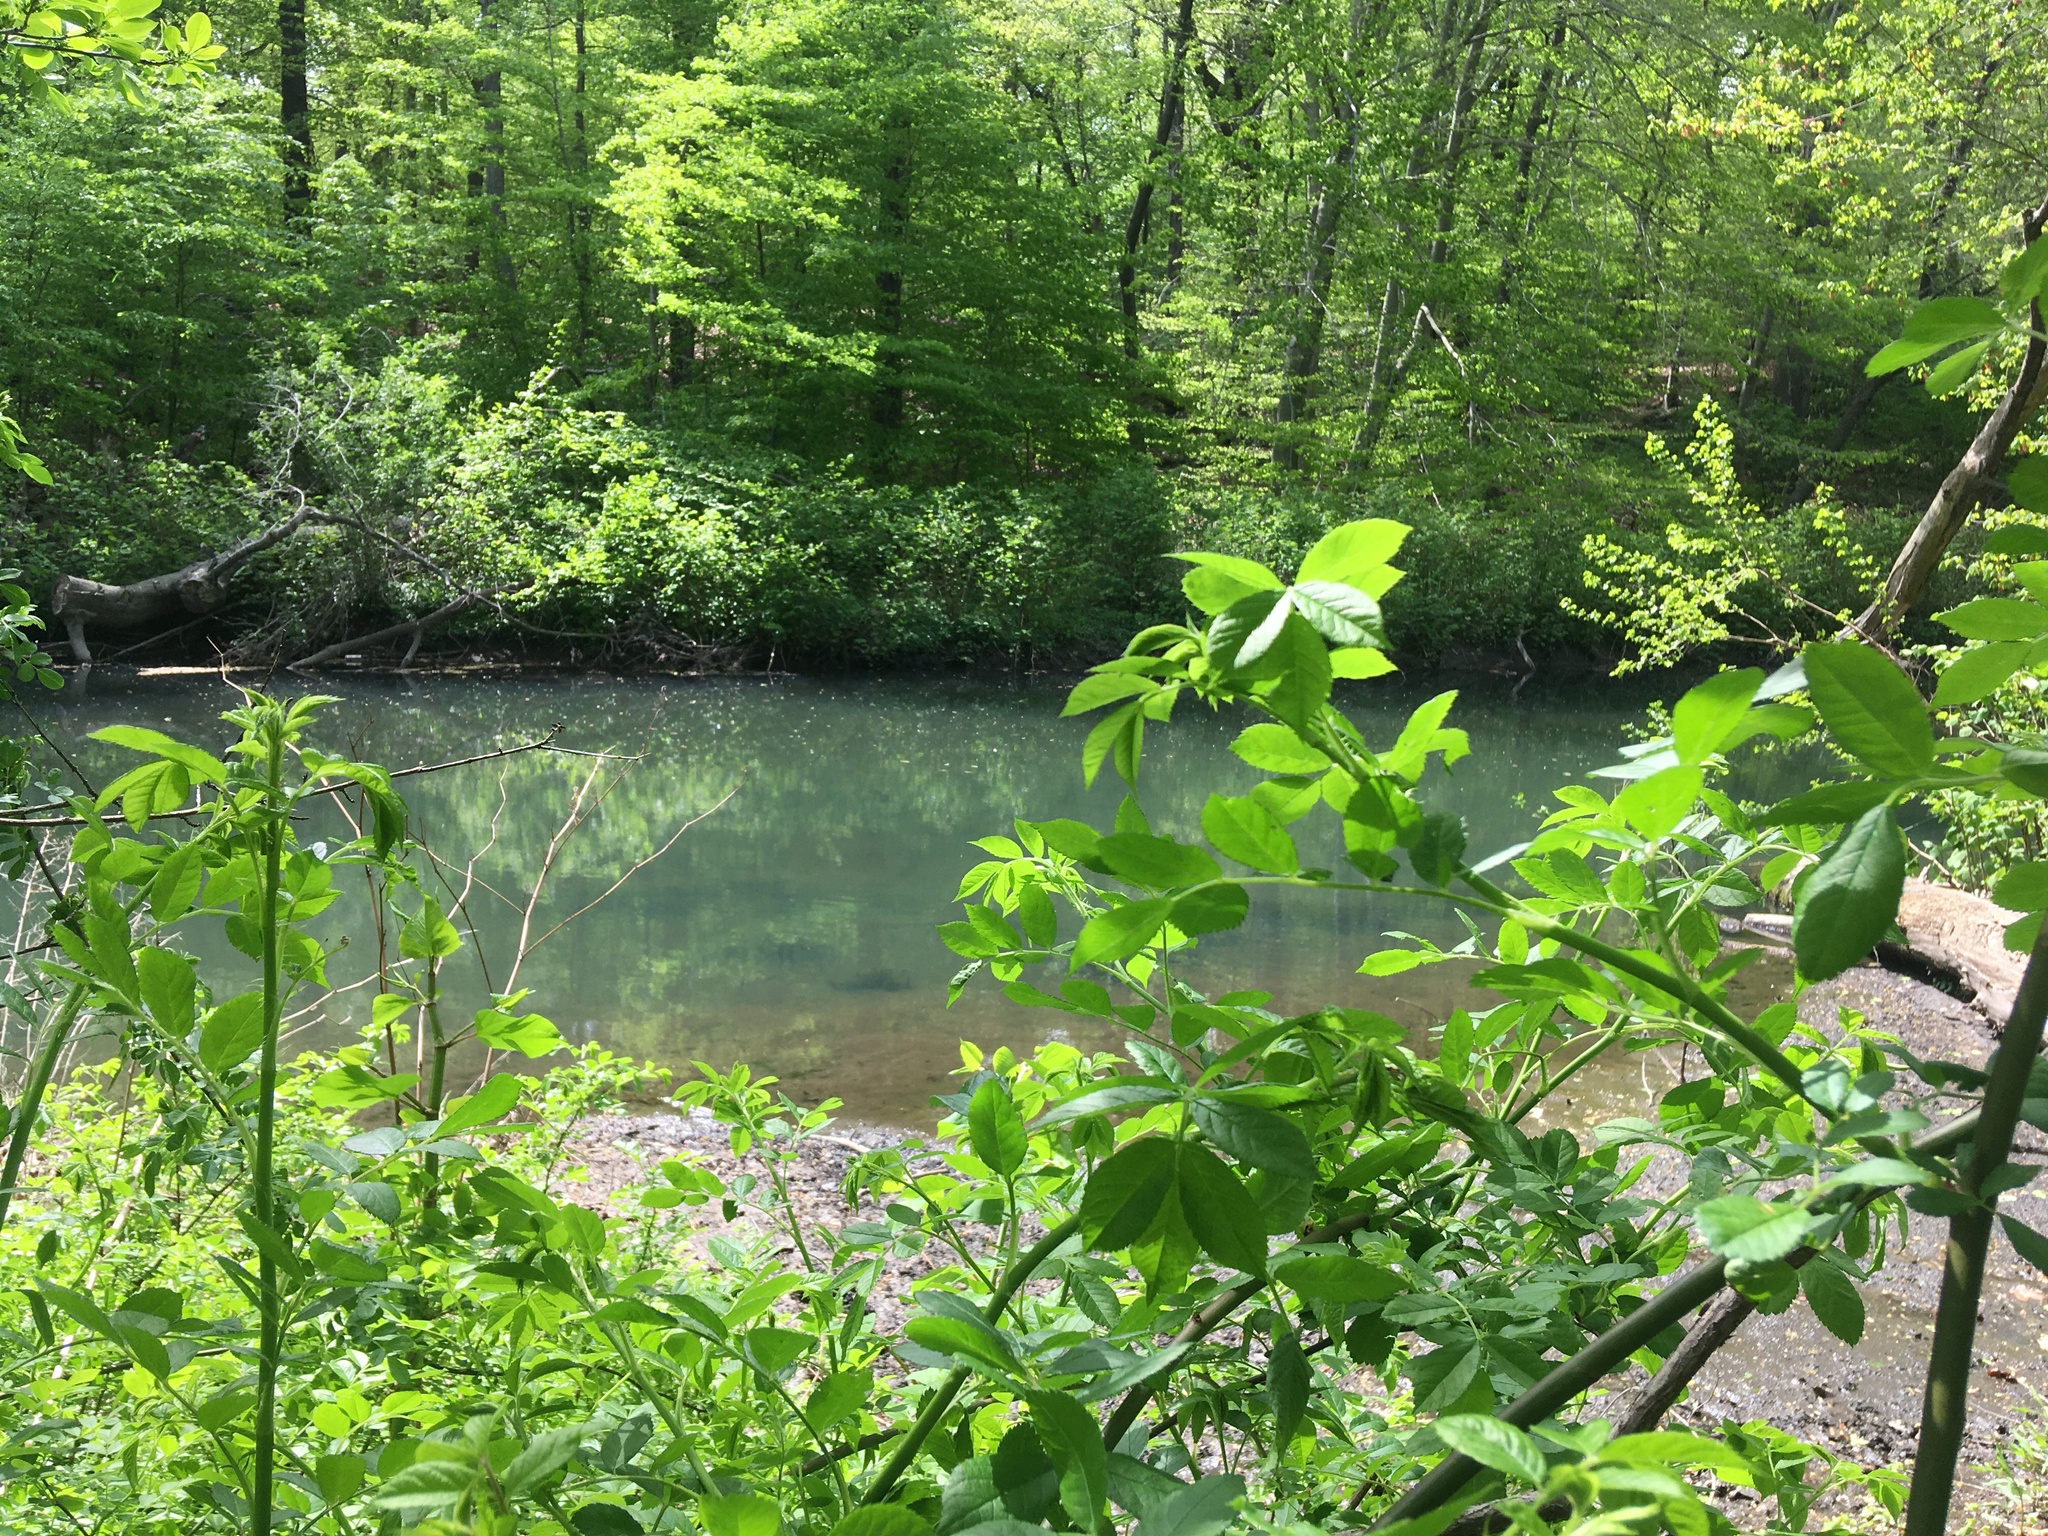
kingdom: Plantae
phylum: Tracheophyta
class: Magnoliopsida
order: Rosales
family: Rosaceae
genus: Rosa
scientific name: Rosa multiflora
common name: Multiflora rose
